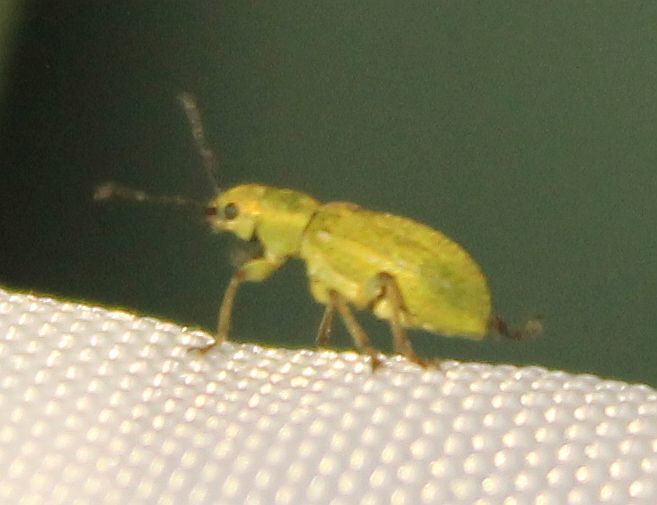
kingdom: Animalia
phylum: Arthropoda
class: Insecta
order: Coleoptera
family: Curculionidae
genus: Pachyrhinus
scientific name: Pachyrhinus lethierryi
